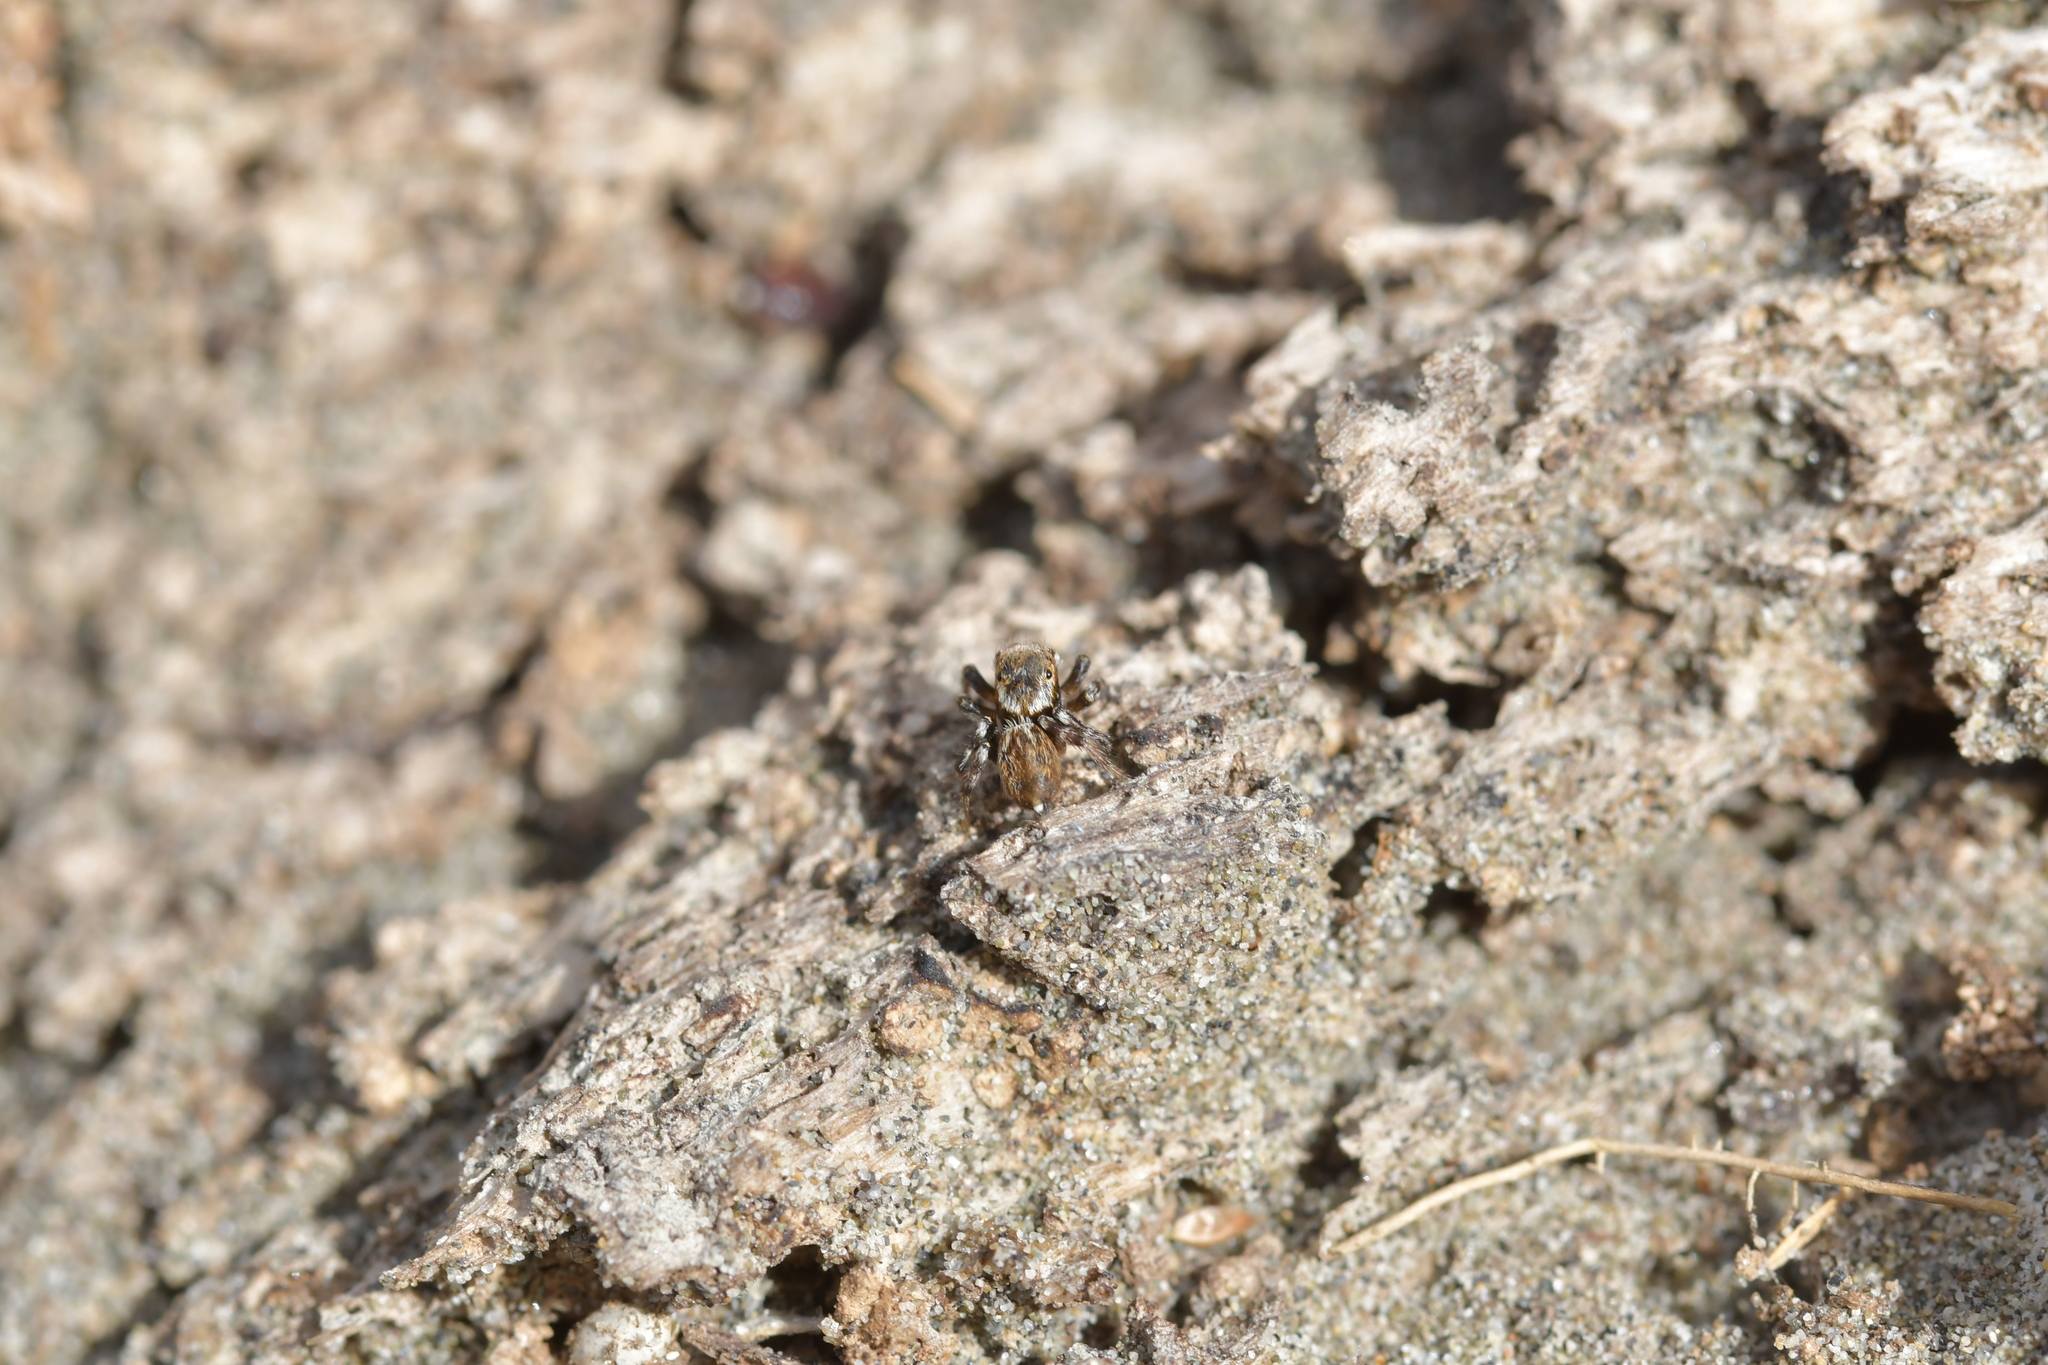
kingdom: Animalia
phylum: Arthropoda
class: Arachnida
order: Araneae
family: Salticidae
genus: Maratus
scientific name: Maratus griseus
